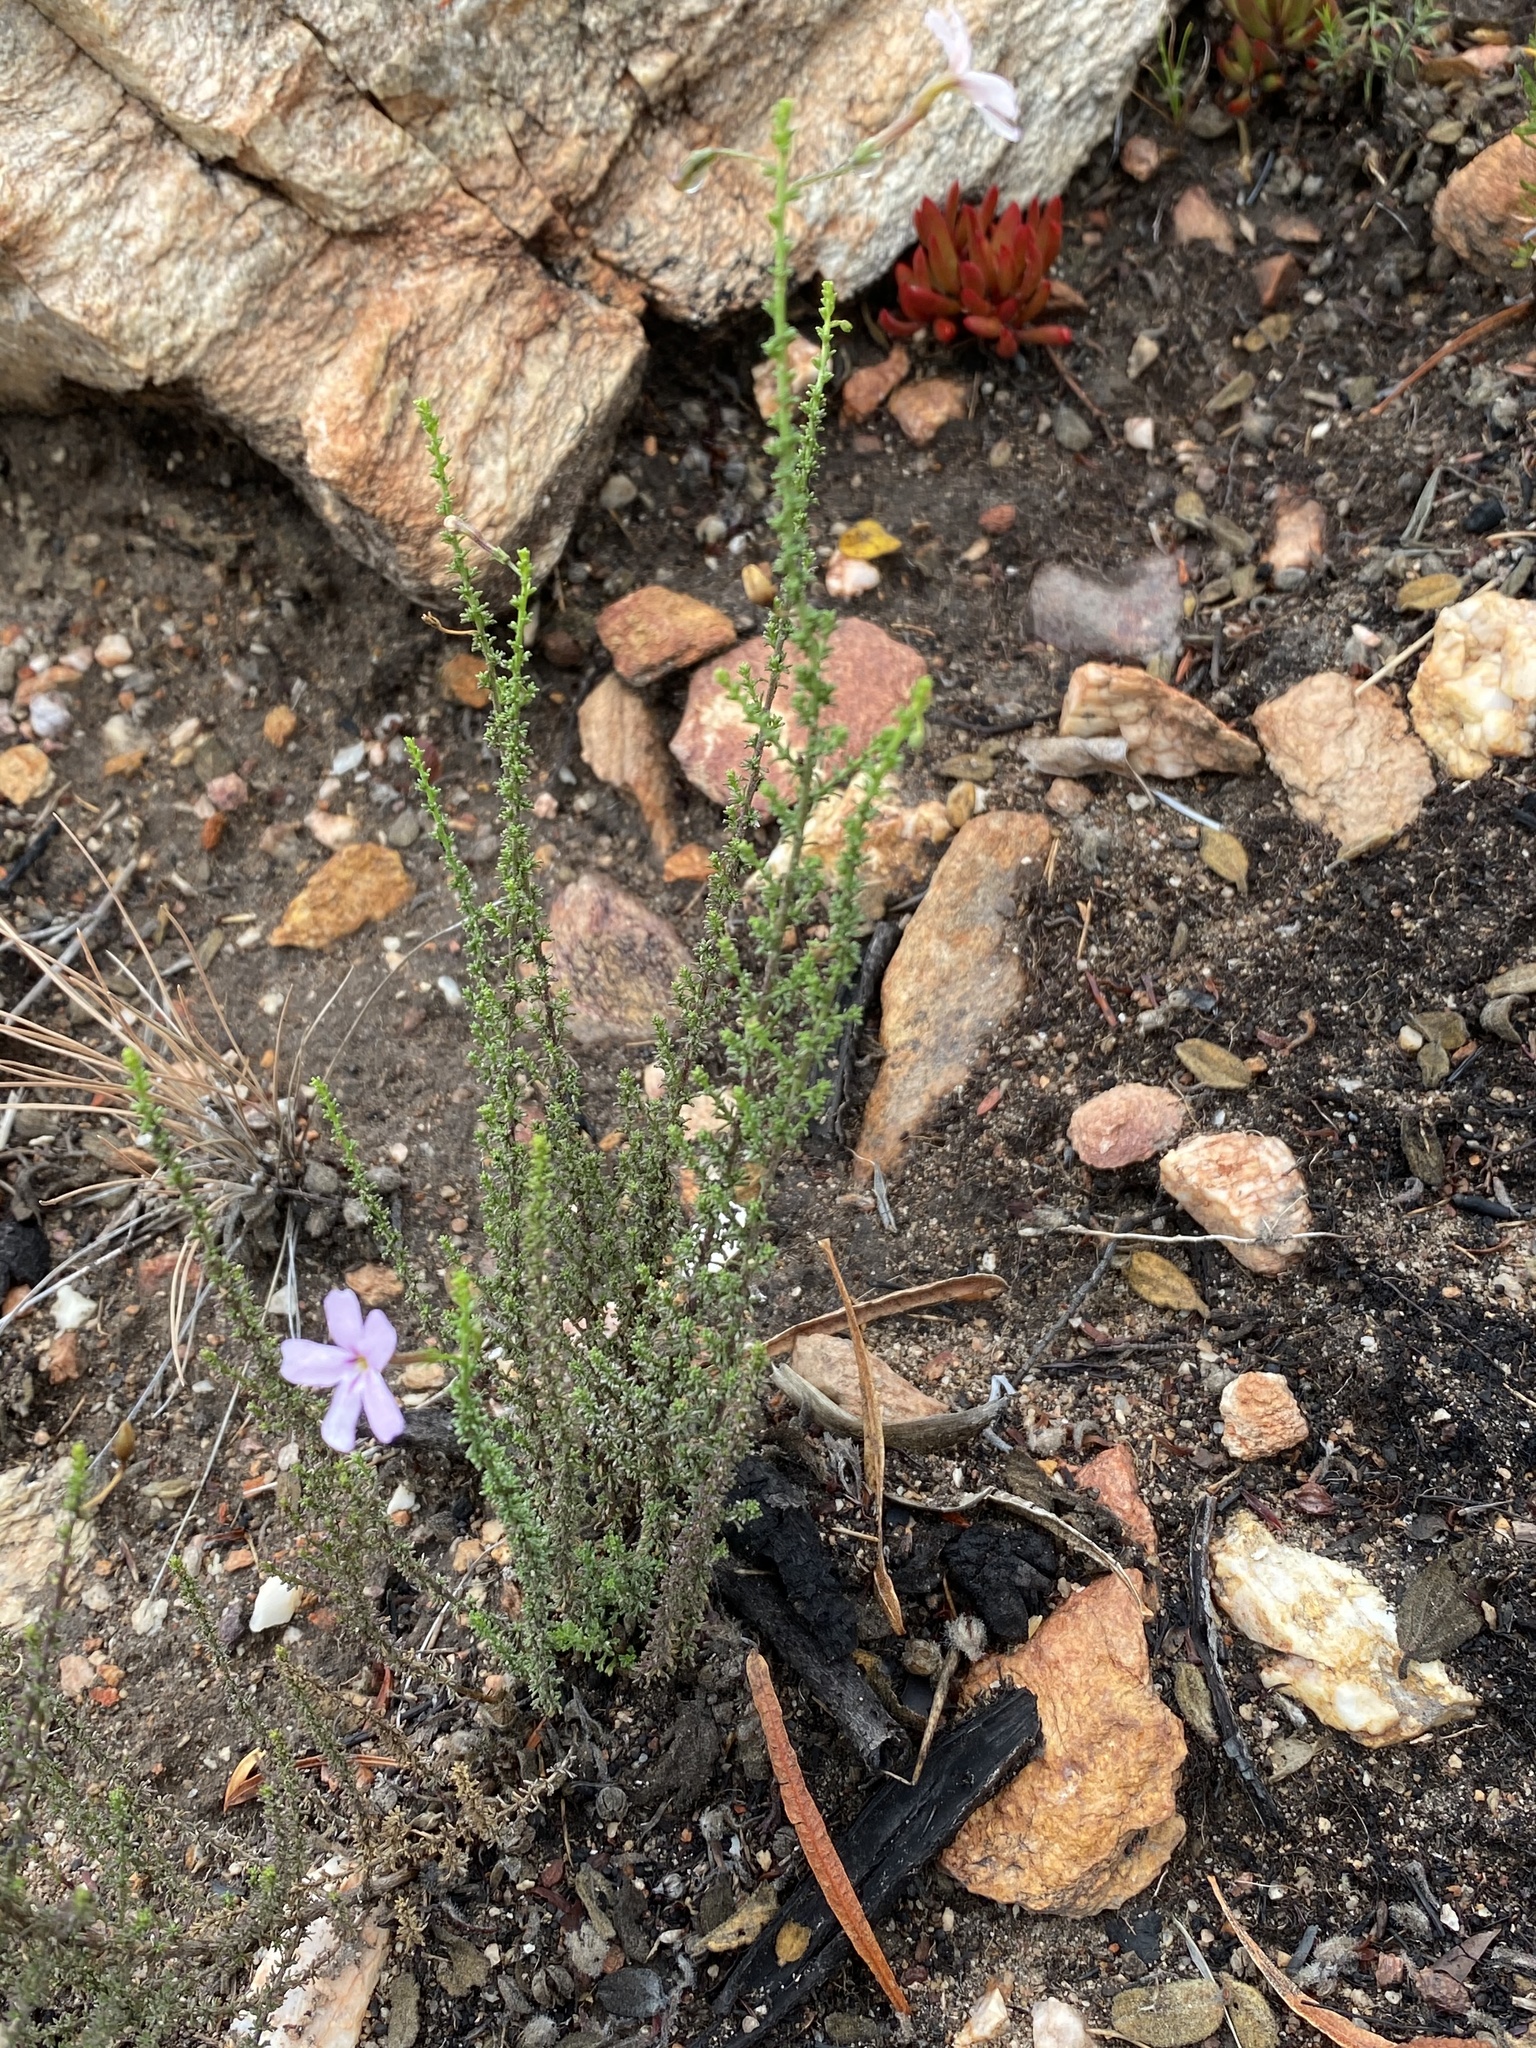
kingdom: Plantae
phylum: Tracheophyta
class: Magnoliopsida
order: Lamiales
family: Scrophulariaceae
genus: Jamesbrittenia
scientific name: Jamesbrittenia aspalathoides
